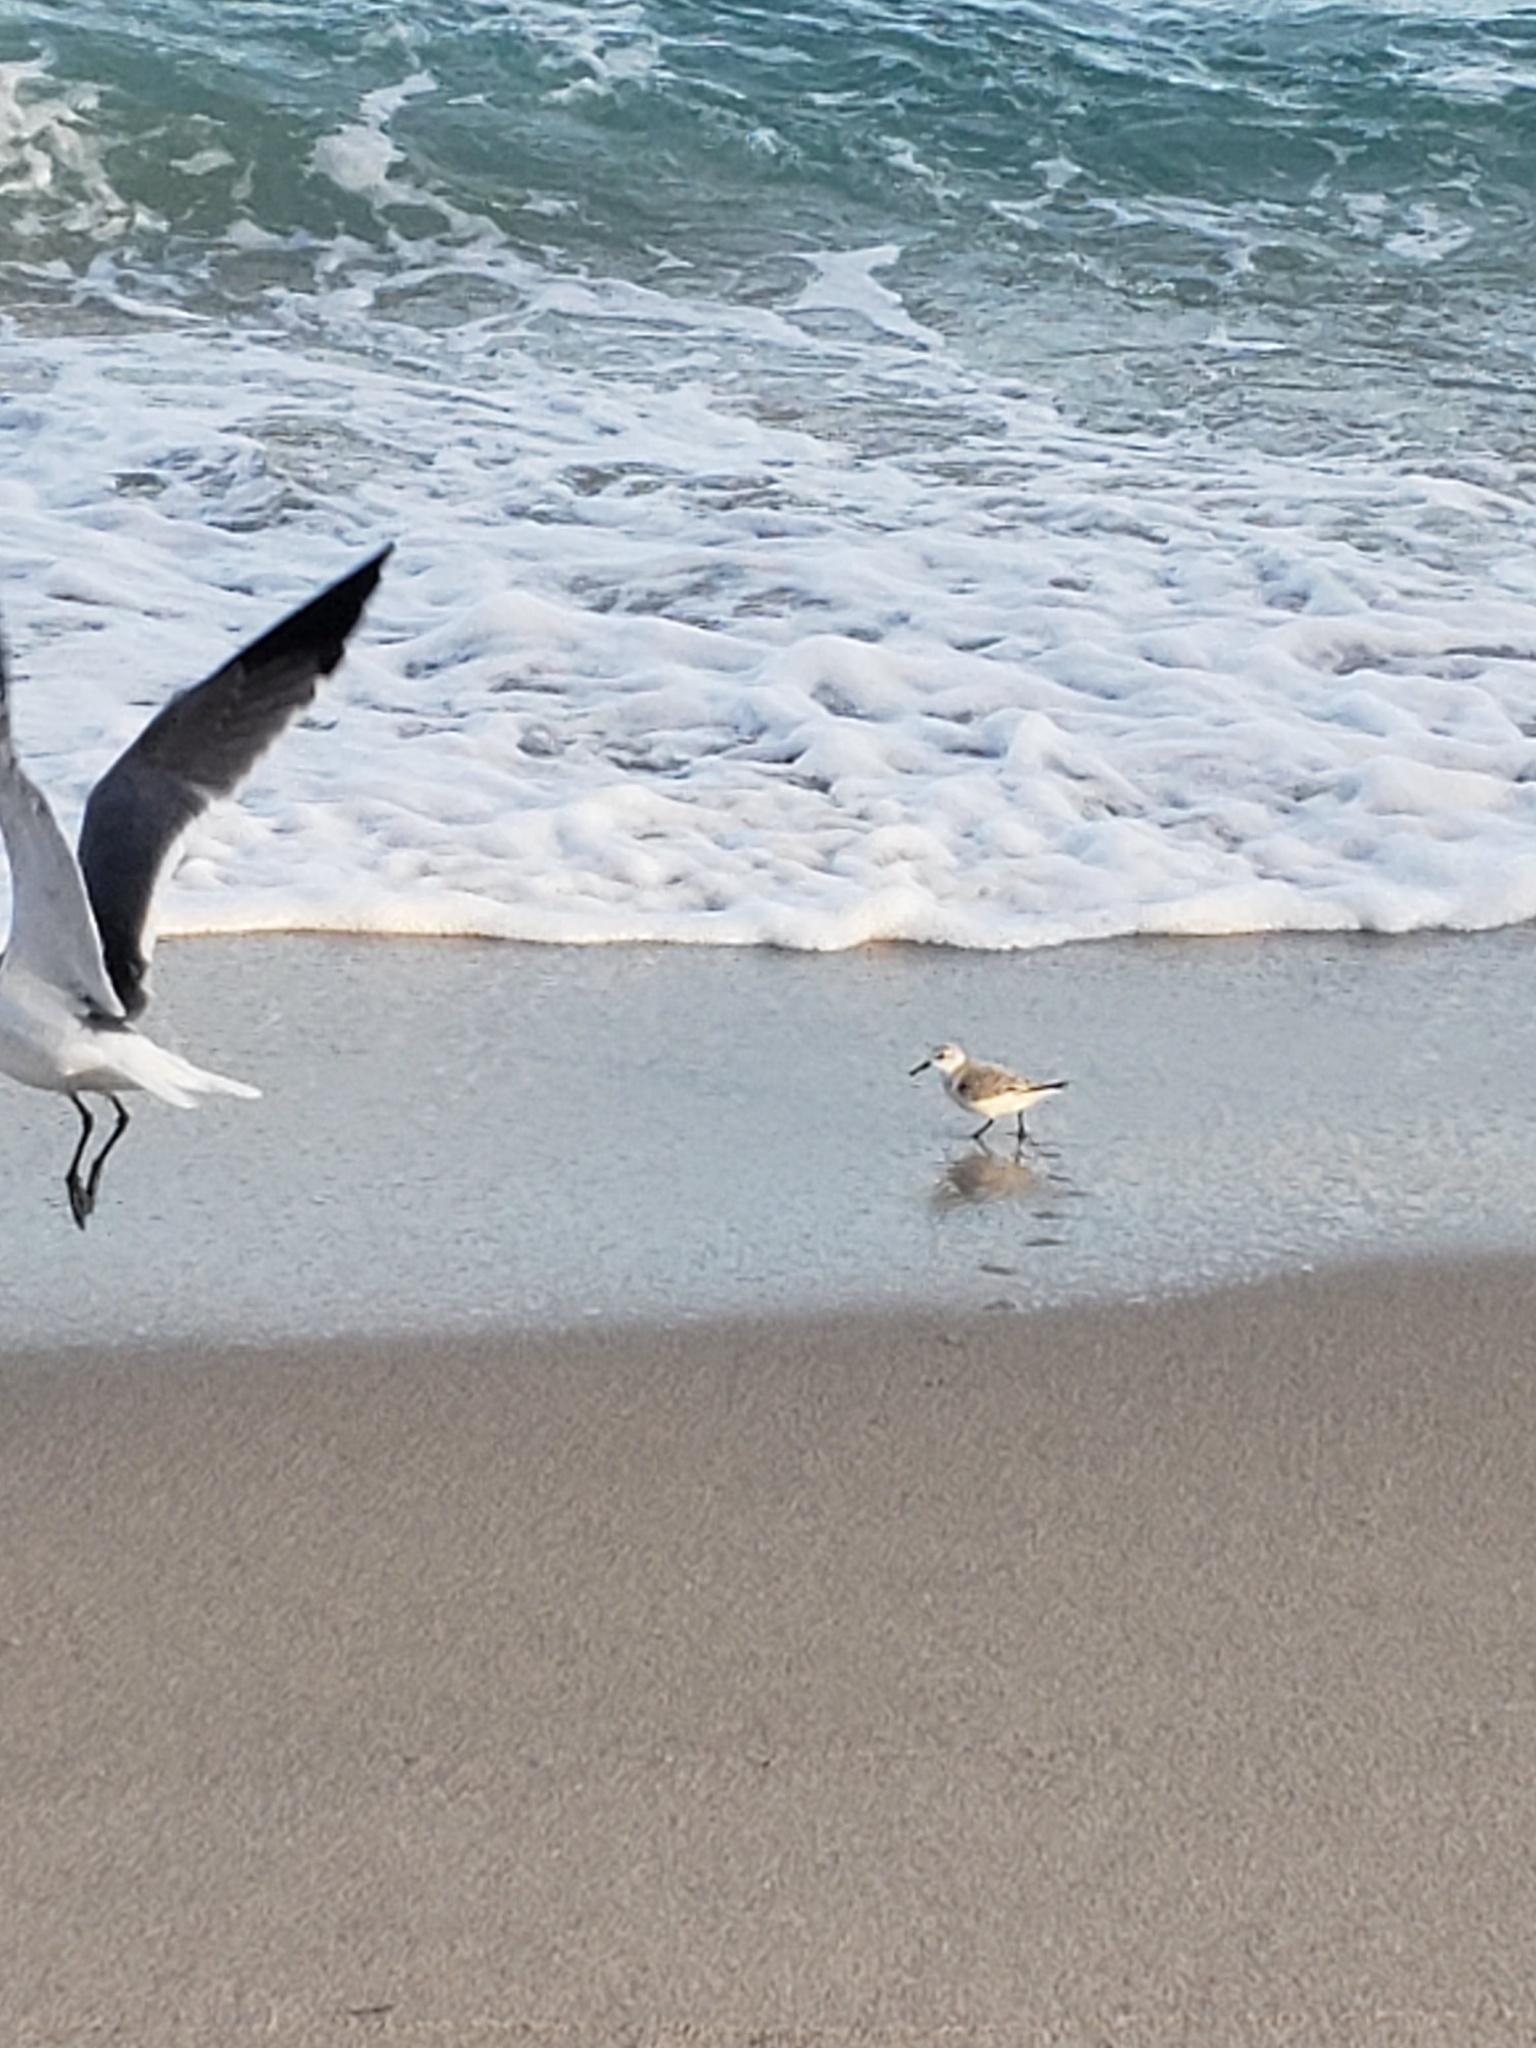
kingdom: Animalia
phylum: Chordata
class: Aves
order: Charadriiformes
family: Scolopacidae
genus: Calidris
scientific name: Calidris alba
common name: Sanderling
